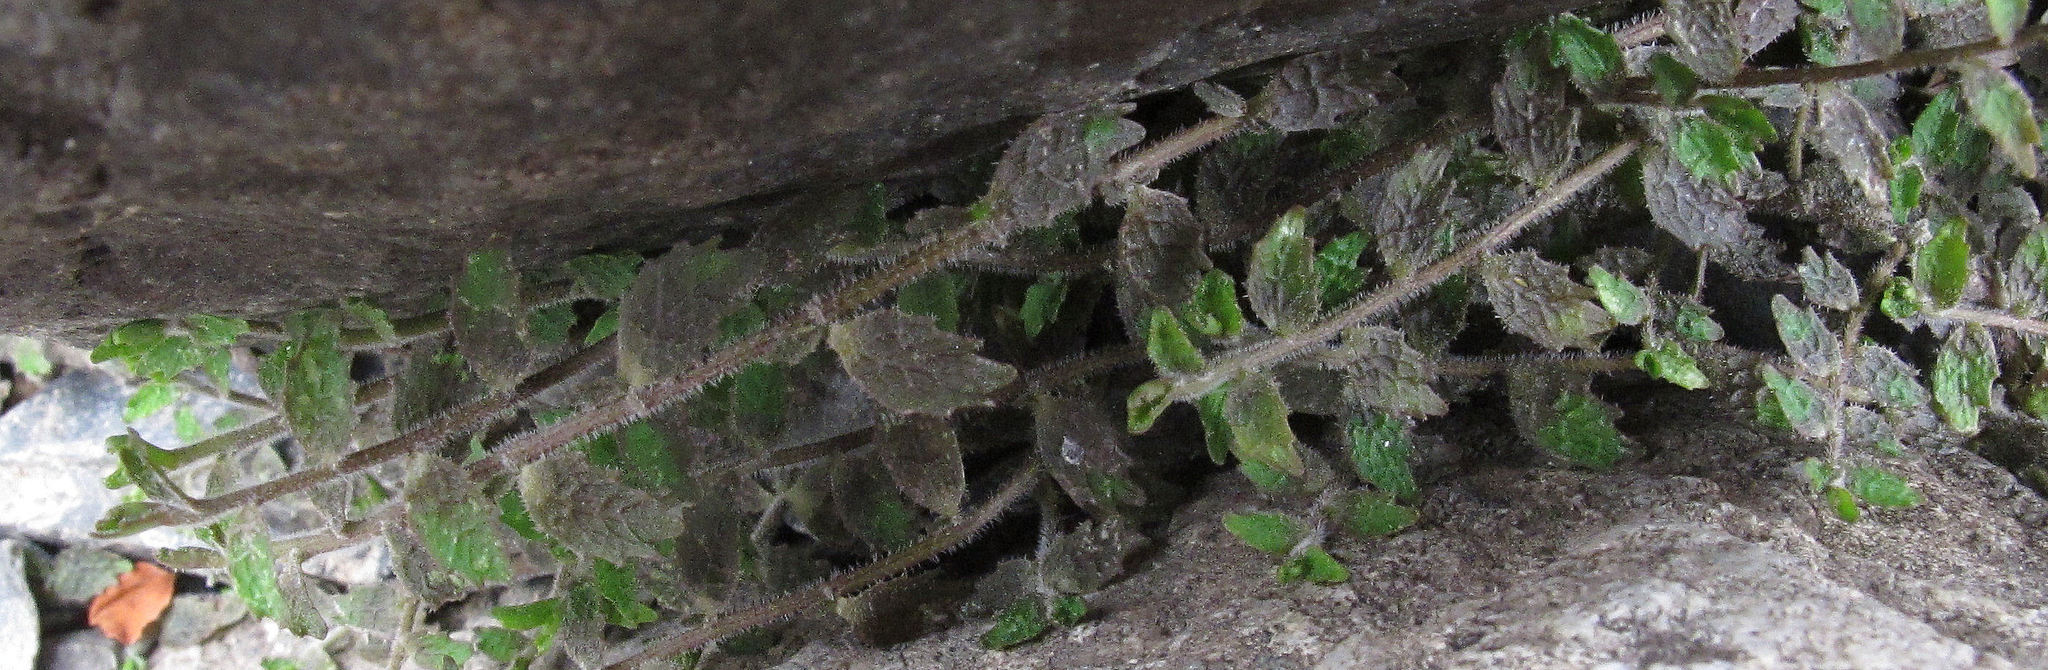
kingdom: Plantae
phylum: Tracheophyta
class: Magnoliopsida
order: Asterales
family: Campanulaceae
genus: Lobelia
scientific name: Lobelia perpusilla
